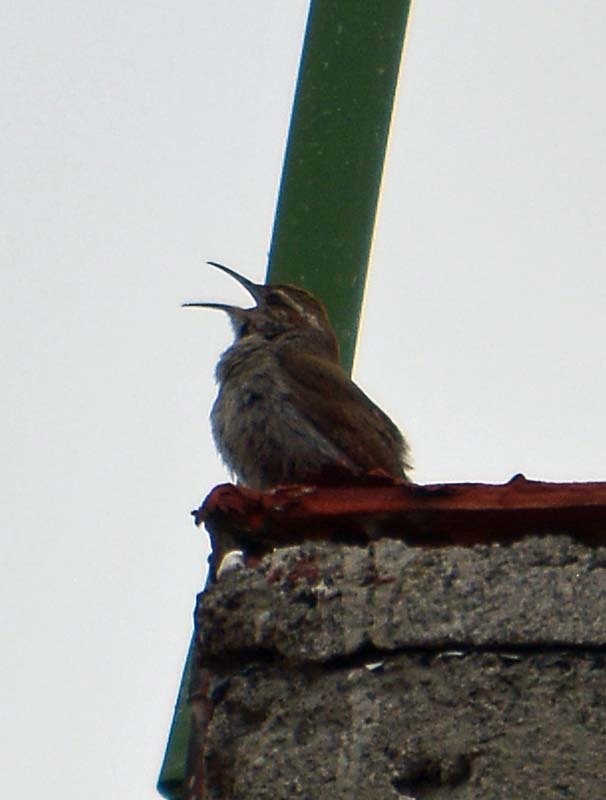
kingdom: Animalia
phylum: Chordata
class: Aves
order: Passeriformes
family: Troglodytidae
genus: Thryomanes
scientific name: Thryomanes bewickii
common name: Bewick's wren
